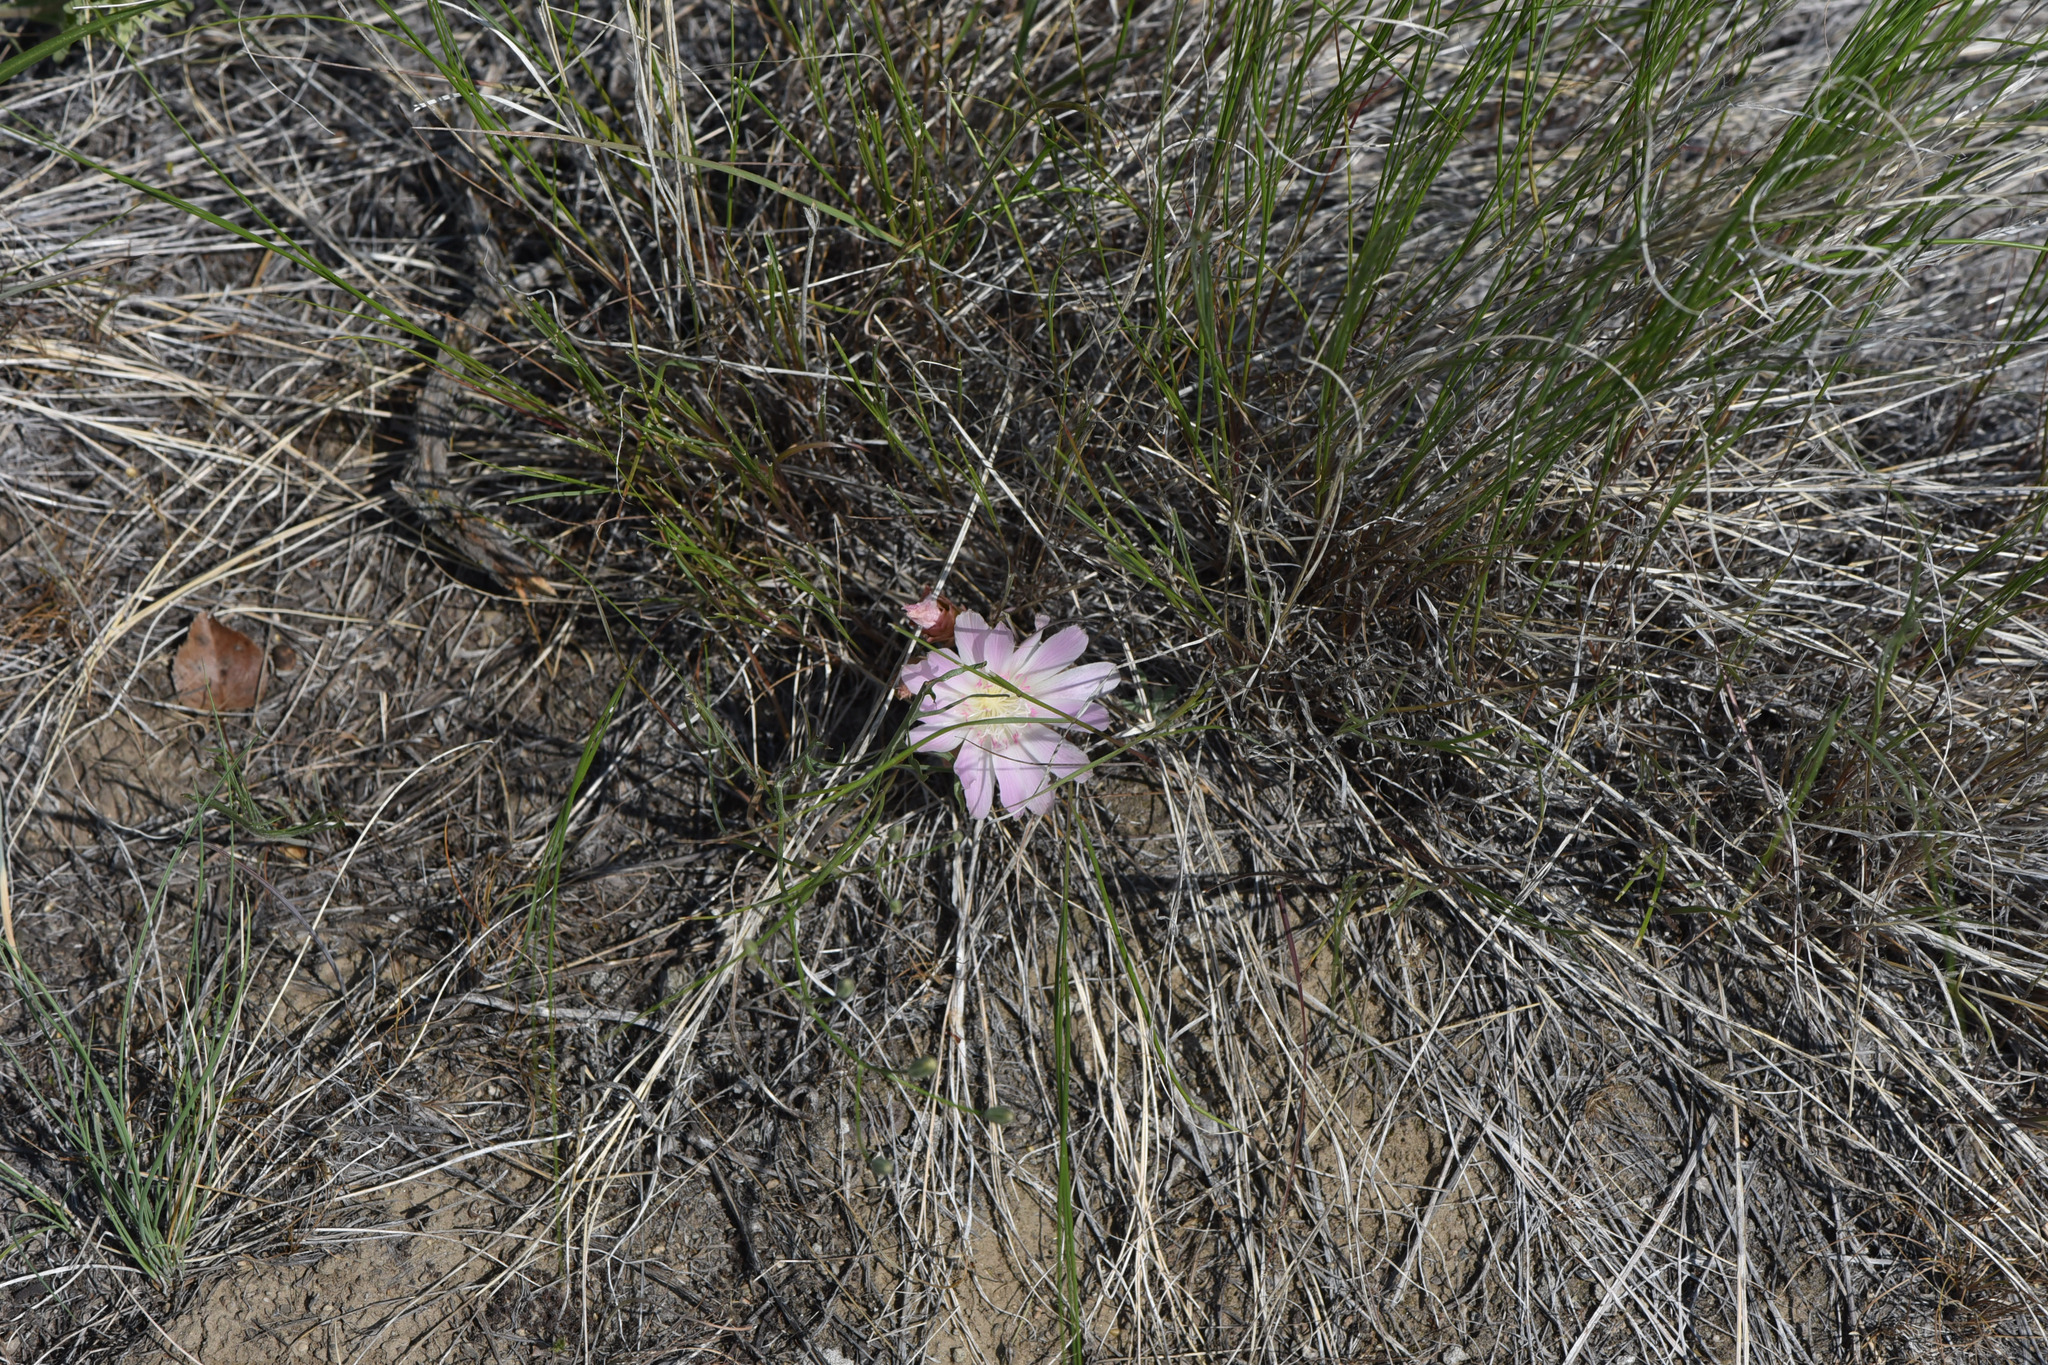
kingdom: Plantae
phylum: Tracheophyta
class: Magnoliopsida
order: Caryophyllales
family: Montiaceae
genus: Lewisia
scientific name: Lewisia rediviva
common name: Bitter-root
